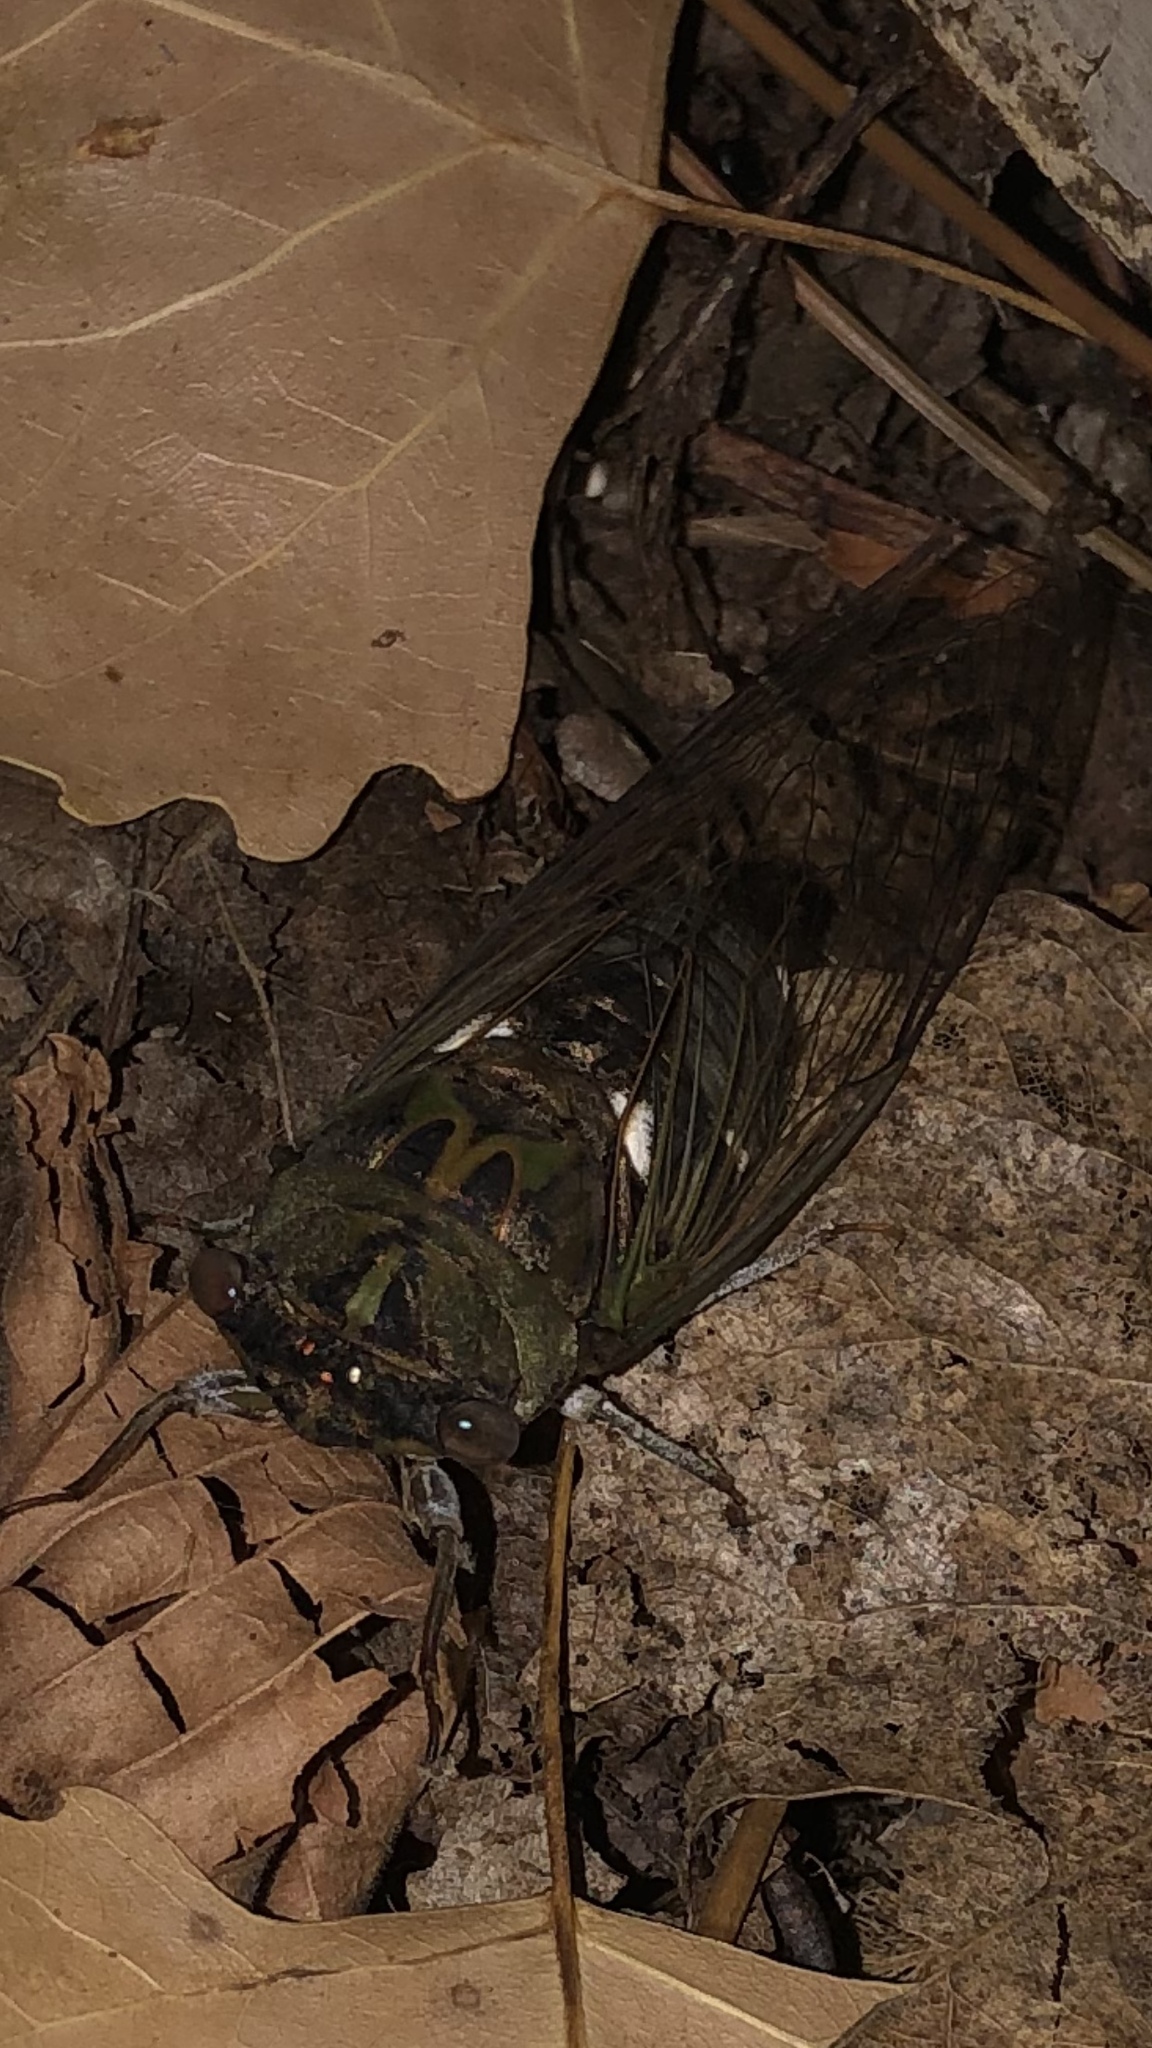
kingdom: Animalia
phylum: Arthropoda
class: Insecta
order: Hemiptera
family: Cicadidae
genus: Neotibicen
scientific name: Neotibicen pruinosus
